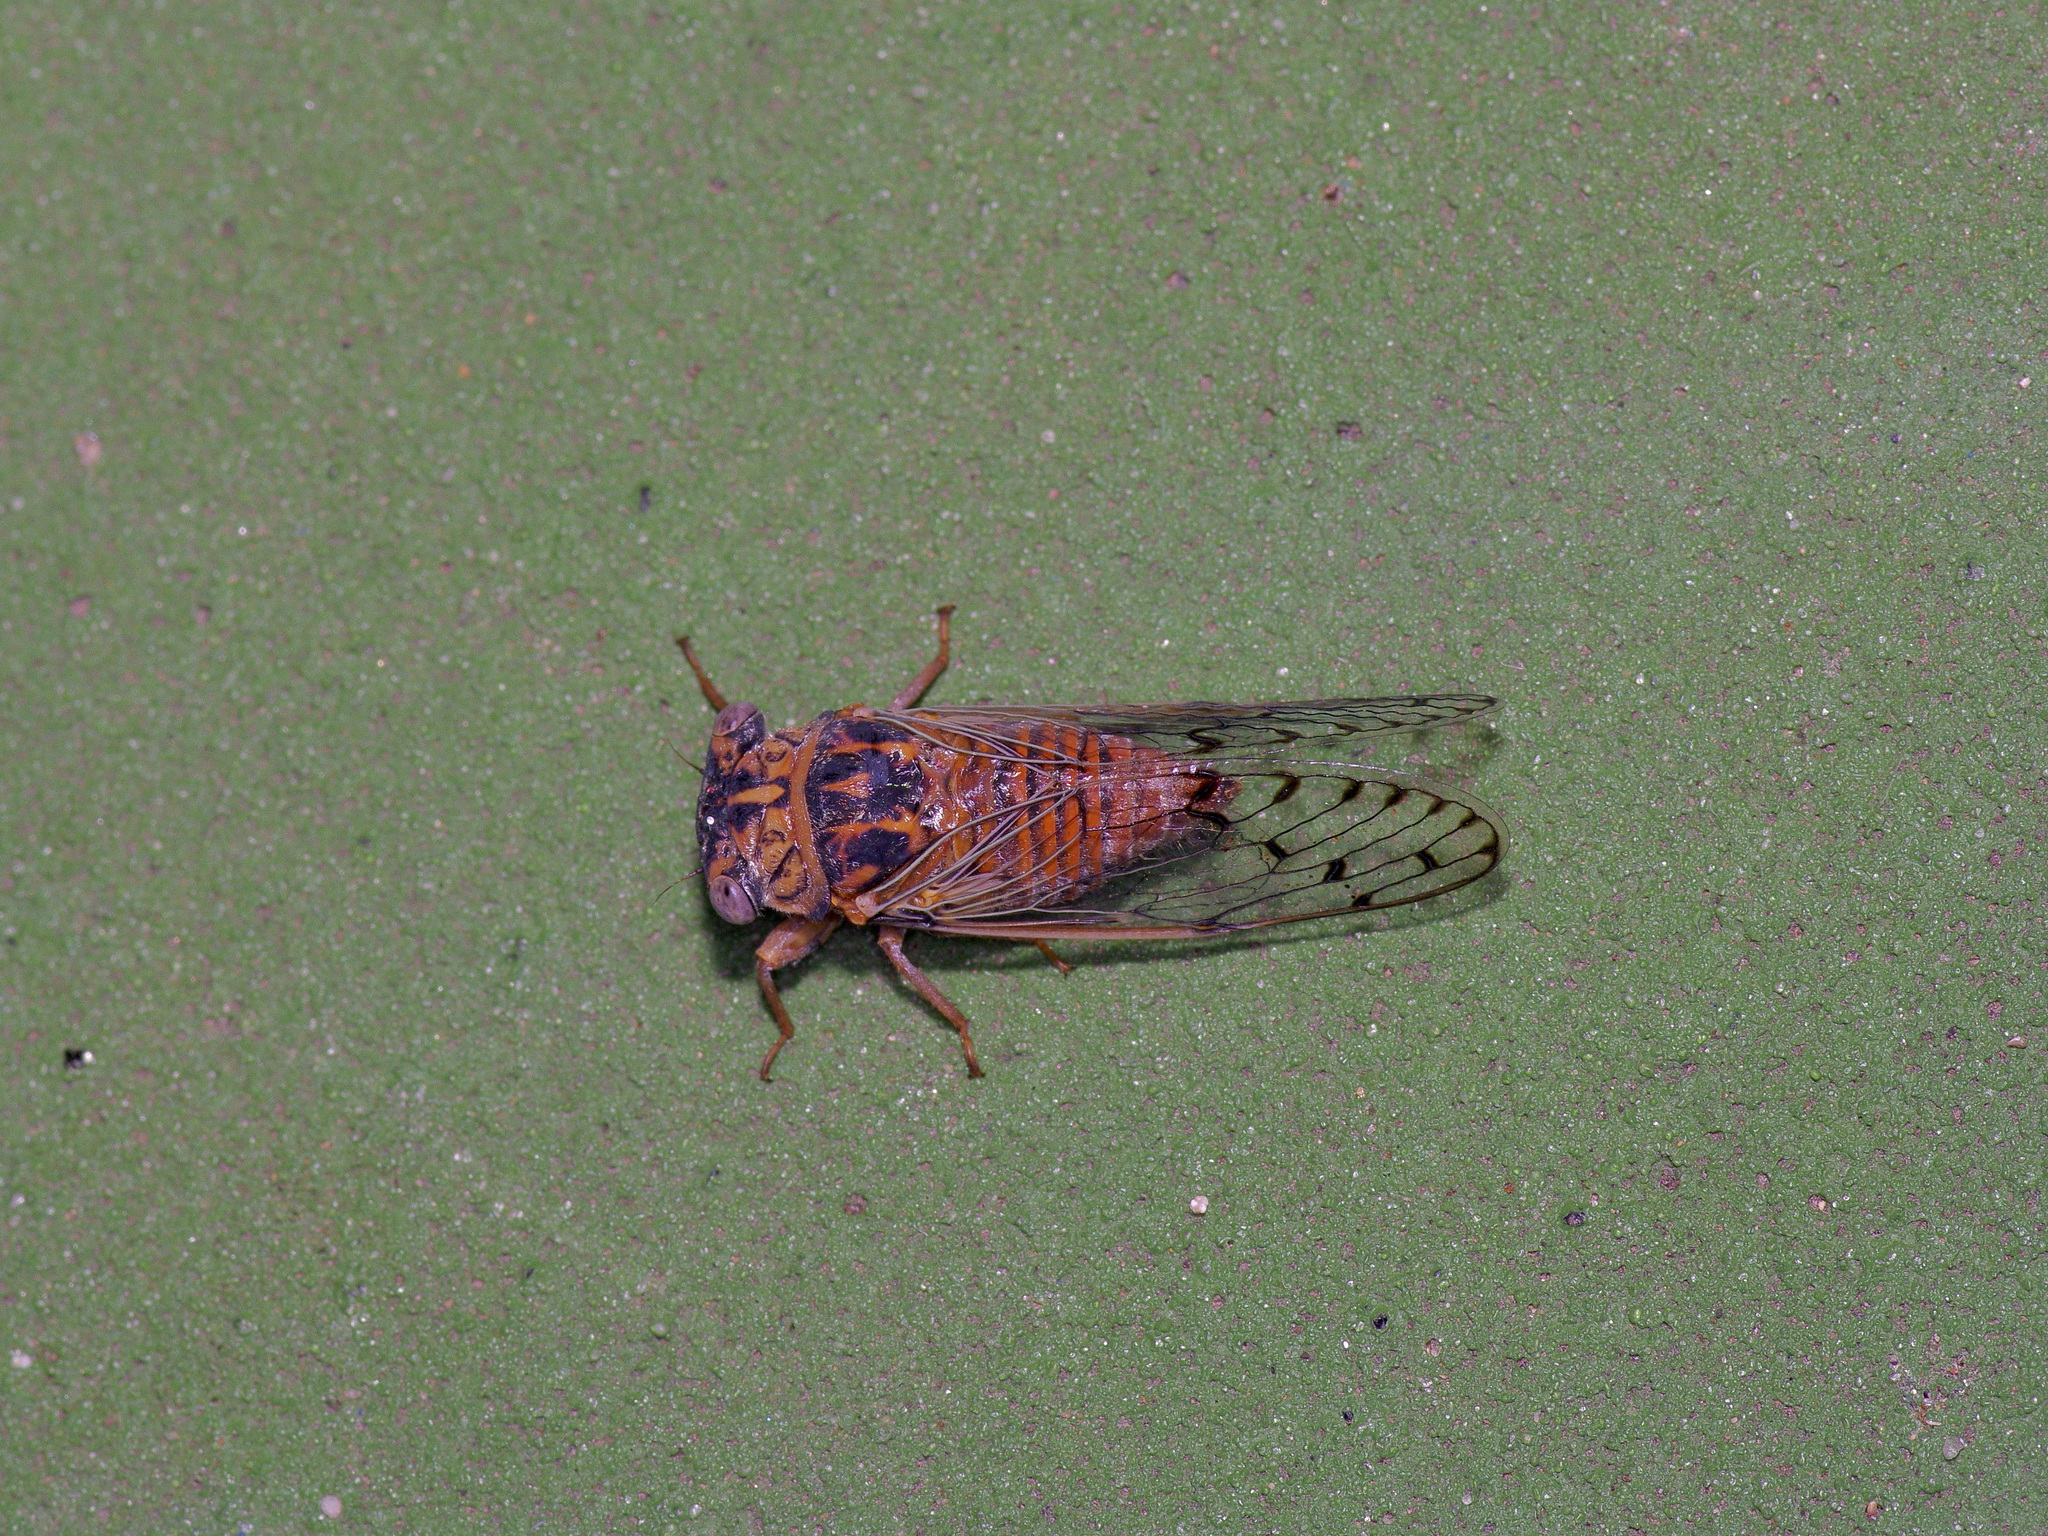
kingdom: Animalia
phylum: Arthropoda
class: Insecta
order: Hemiptera
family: Cicadidae
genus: Pacarina
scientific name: Pacarina puella
